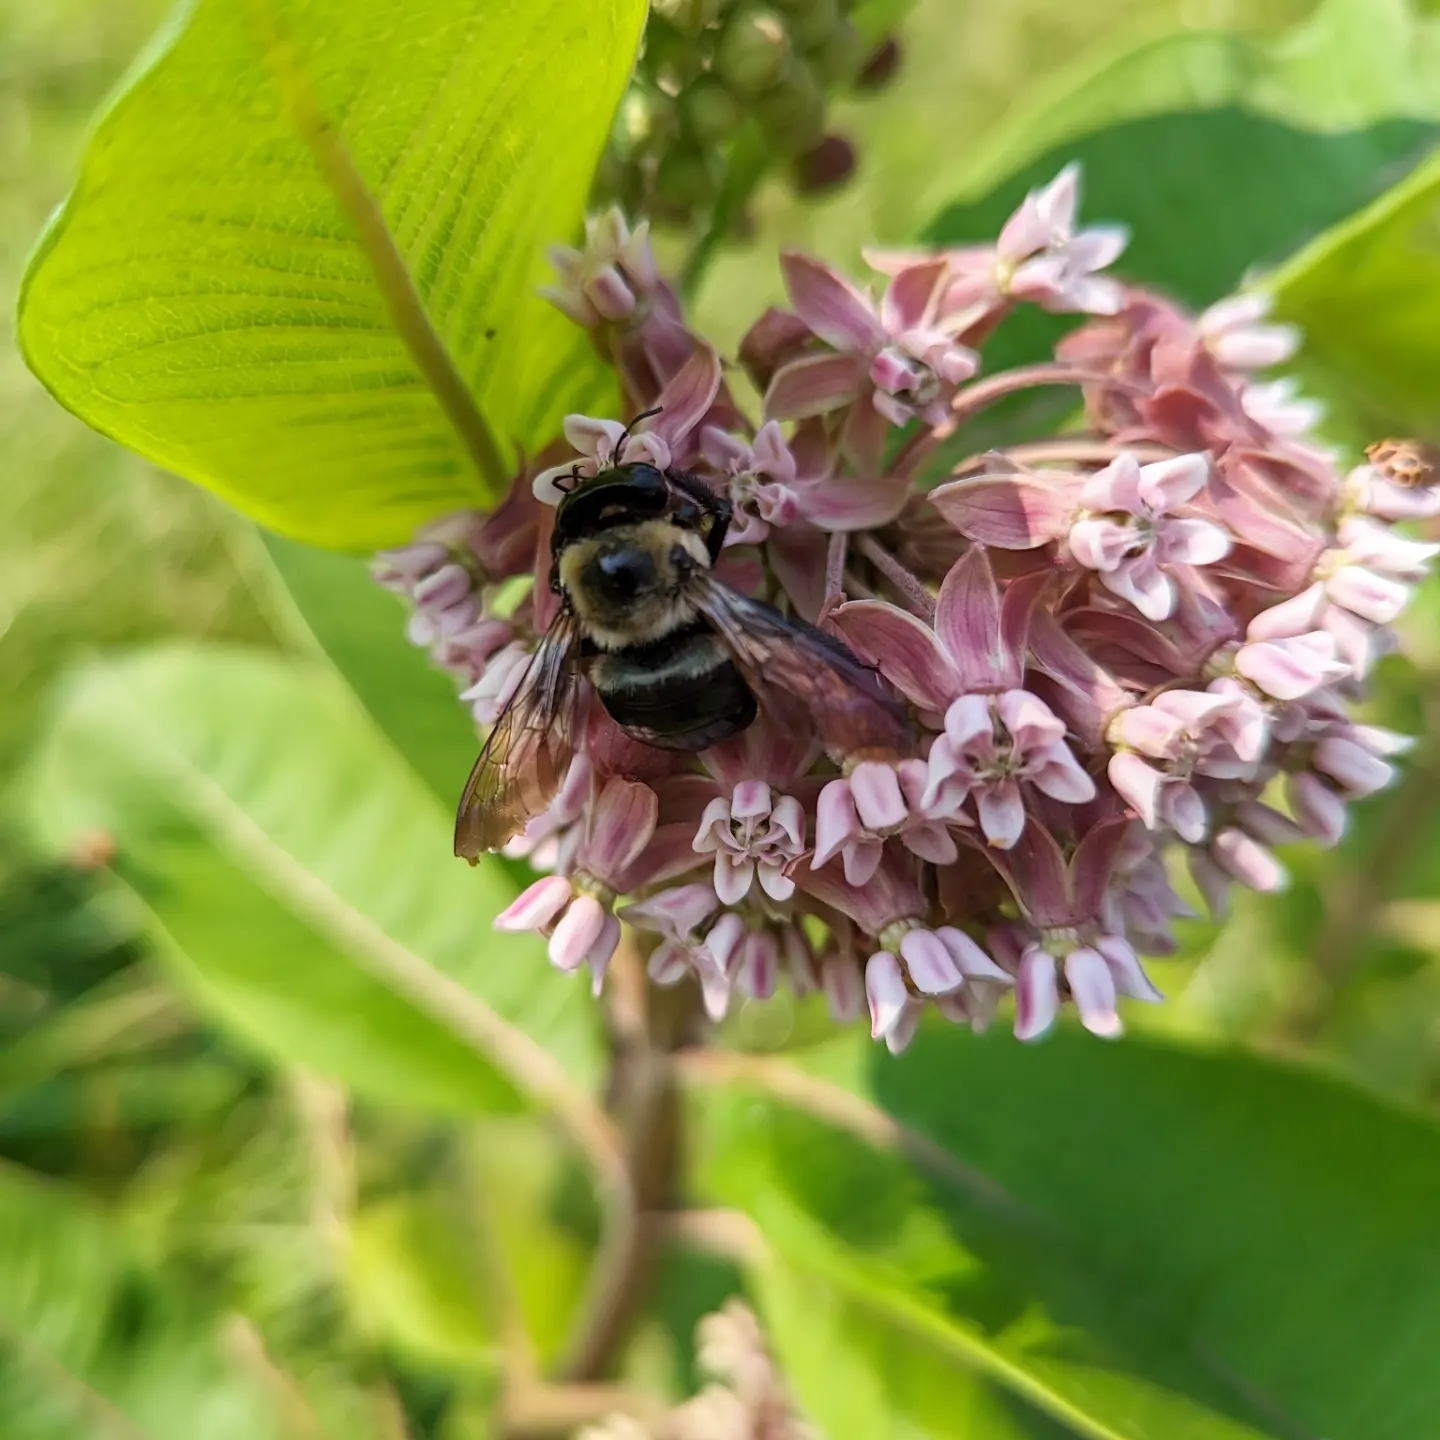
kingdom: Animalia
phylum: Arthropoda
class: Insecta
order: Hymenoptera
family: Apidae
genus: Xylocopa
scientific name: Xylocopa virginica
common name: Carpenter bee
